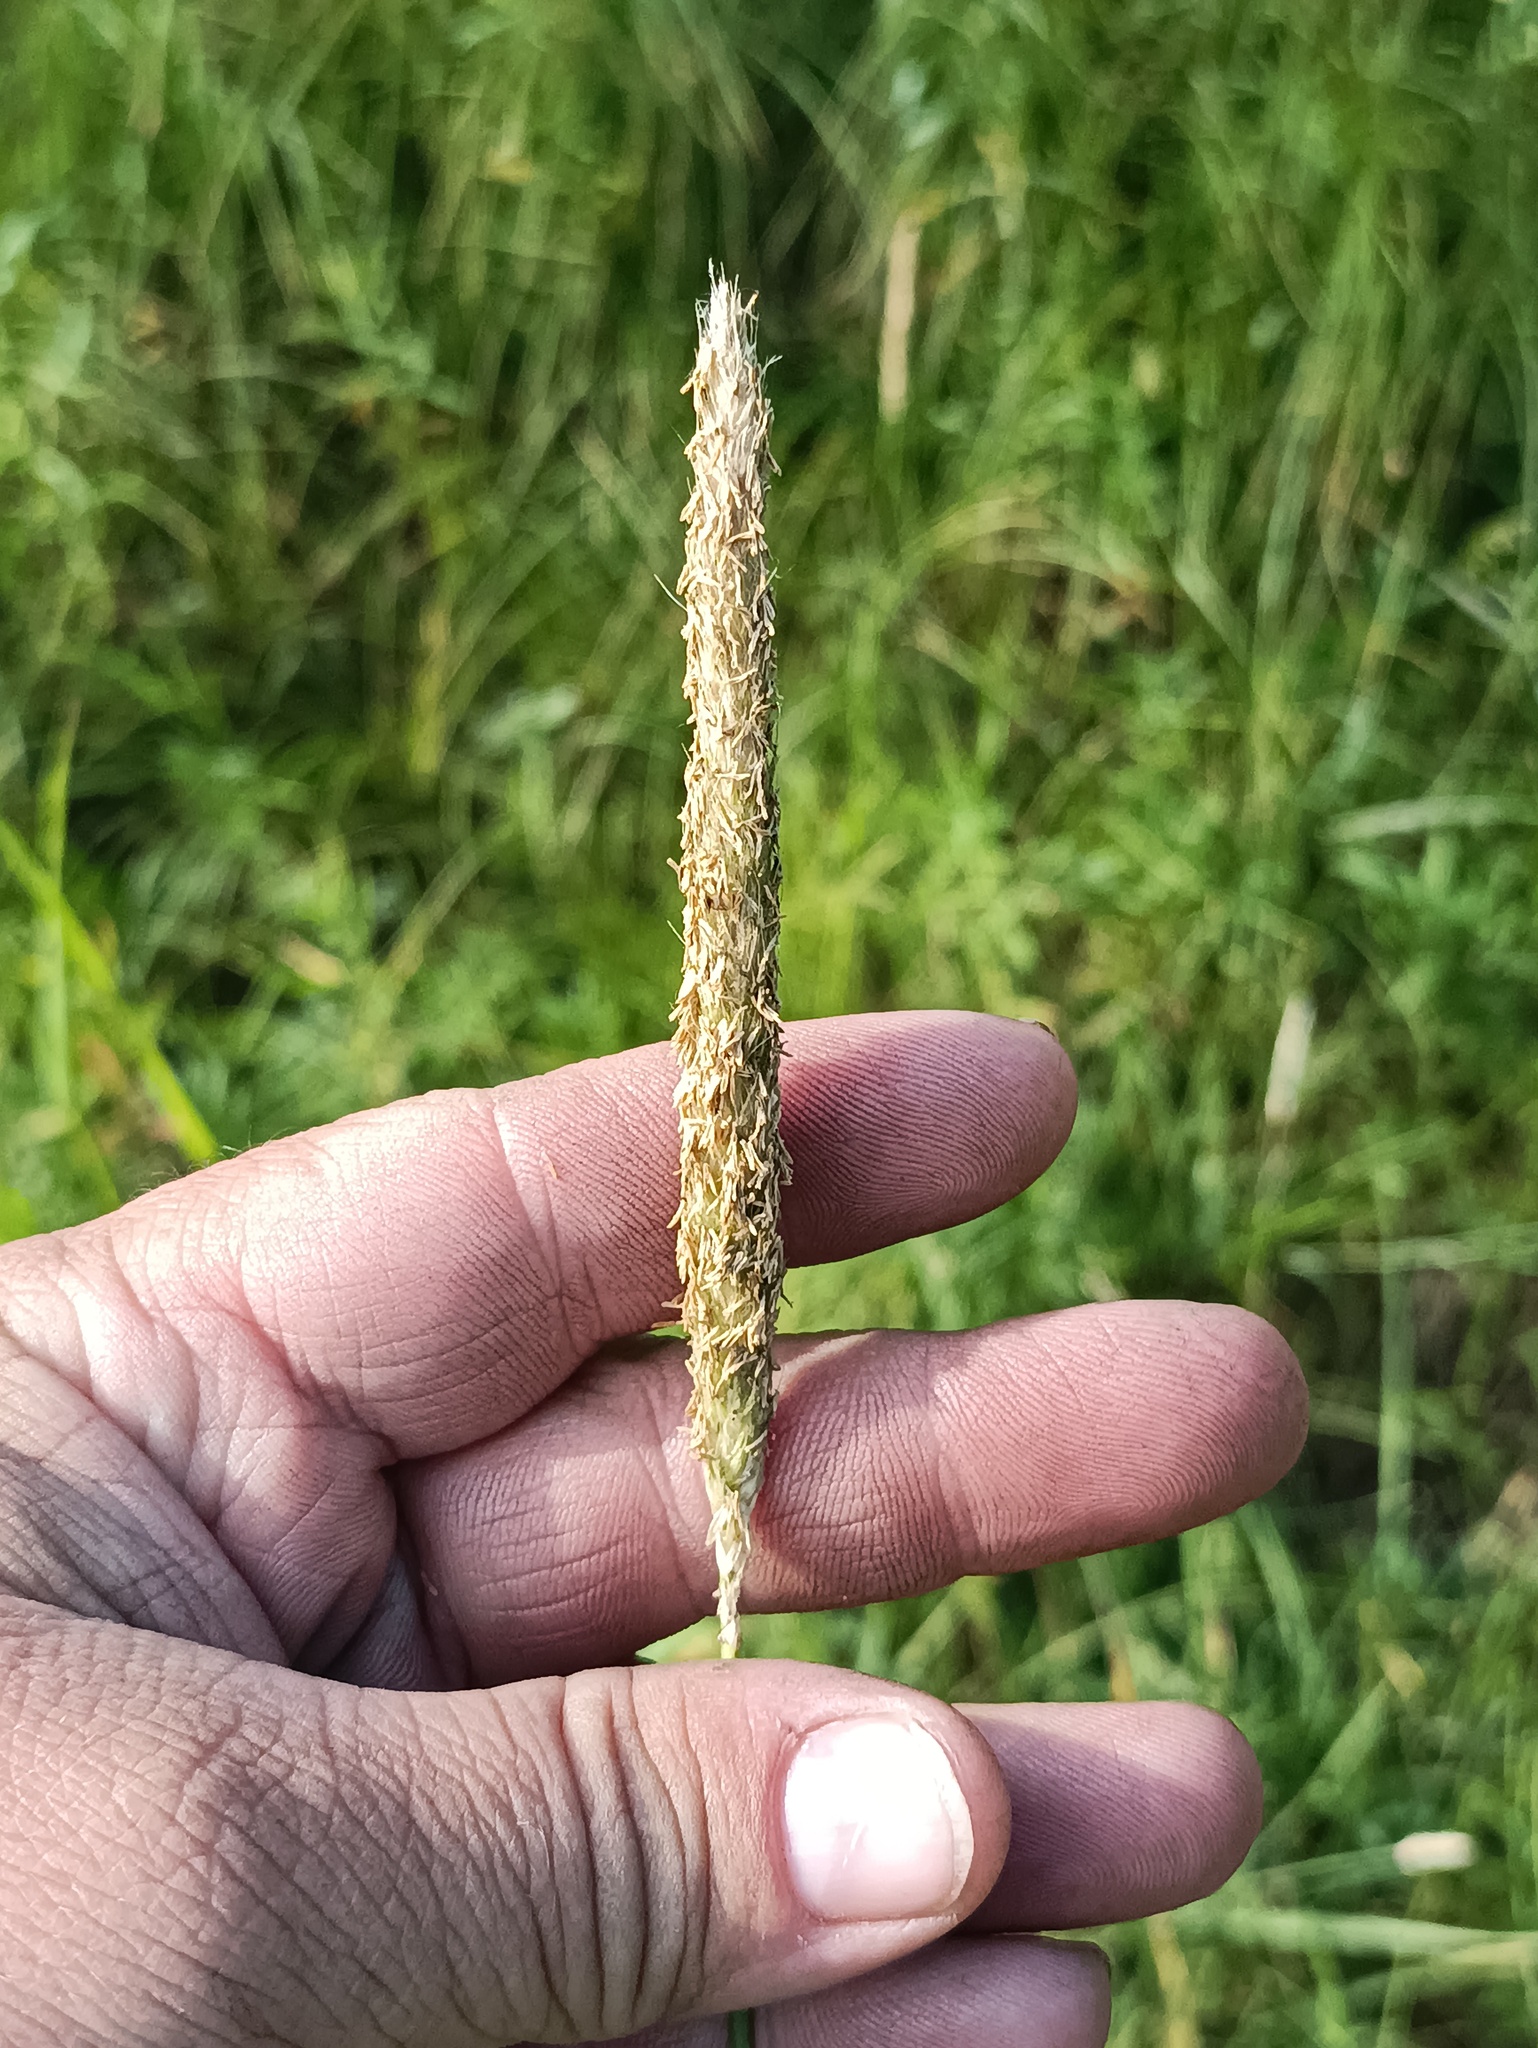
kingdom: Plantae
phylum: Tracheophyta
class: Liliopsida
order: Poales
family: Poaceae
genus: Alopecurus
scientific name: Alopecurus pratensis
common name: Meadow foxtail
